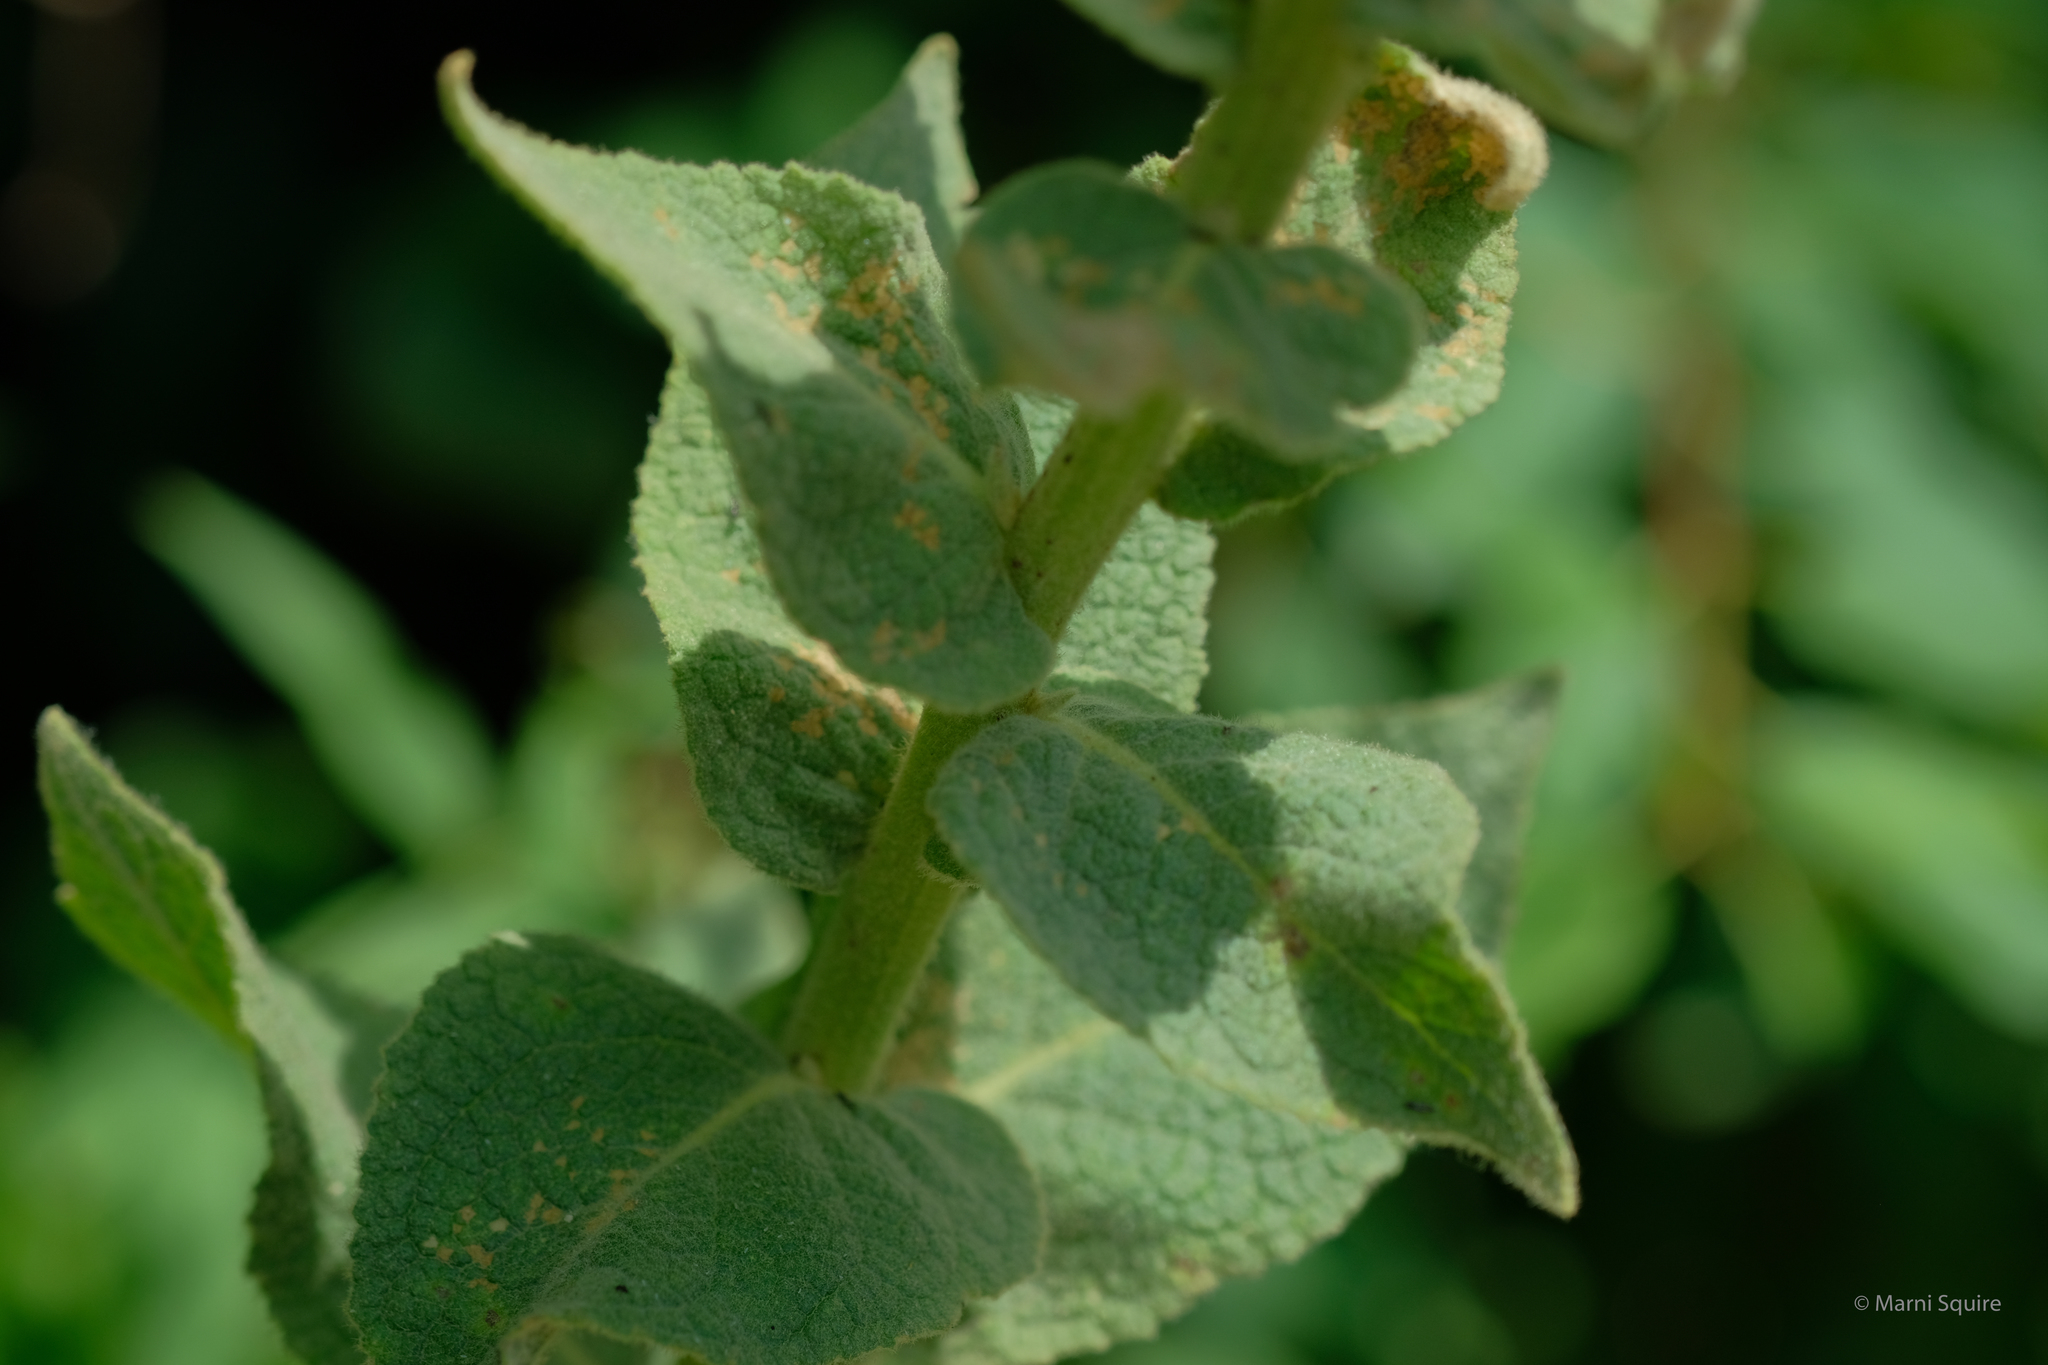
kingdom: Plantae
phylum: Tracheophyta
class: Magnoliopsida
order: Lamiales
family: Scrophulariaceae
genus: Verbascum
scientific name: Verbascum phlomoides
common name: Orange mullein
